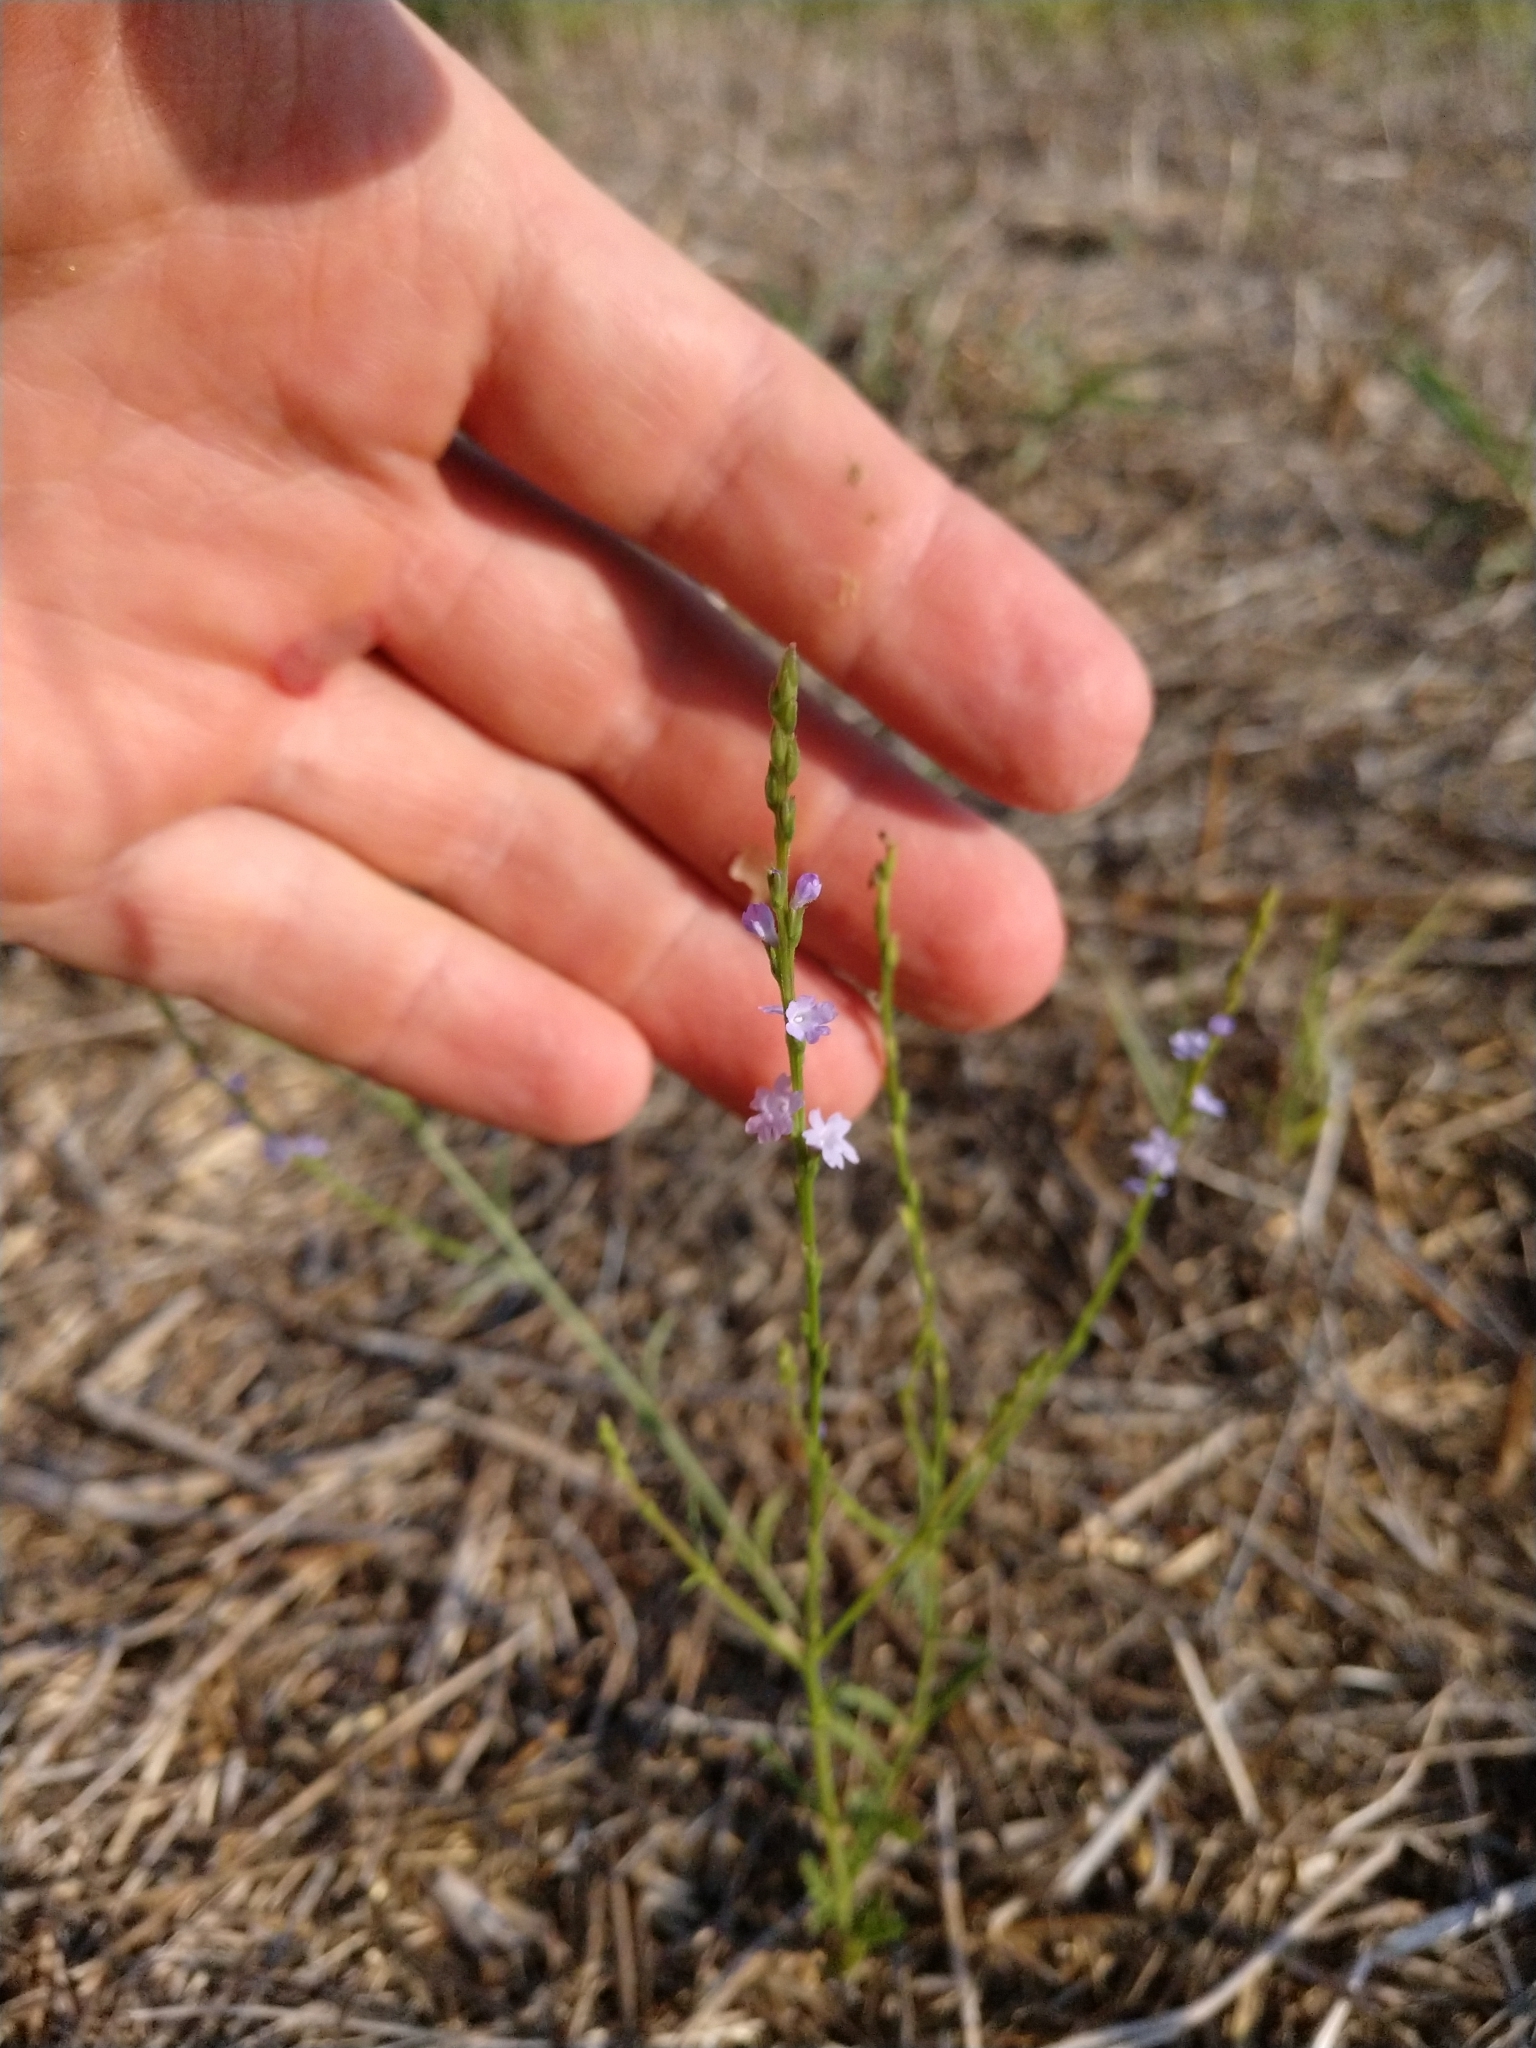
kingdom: Plantae
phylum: Tracheophyta
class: Magnoliopsida
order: Lamiales
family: Verbenaceae
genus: Verbena
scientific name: Verbena halei
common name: Texas vervain
